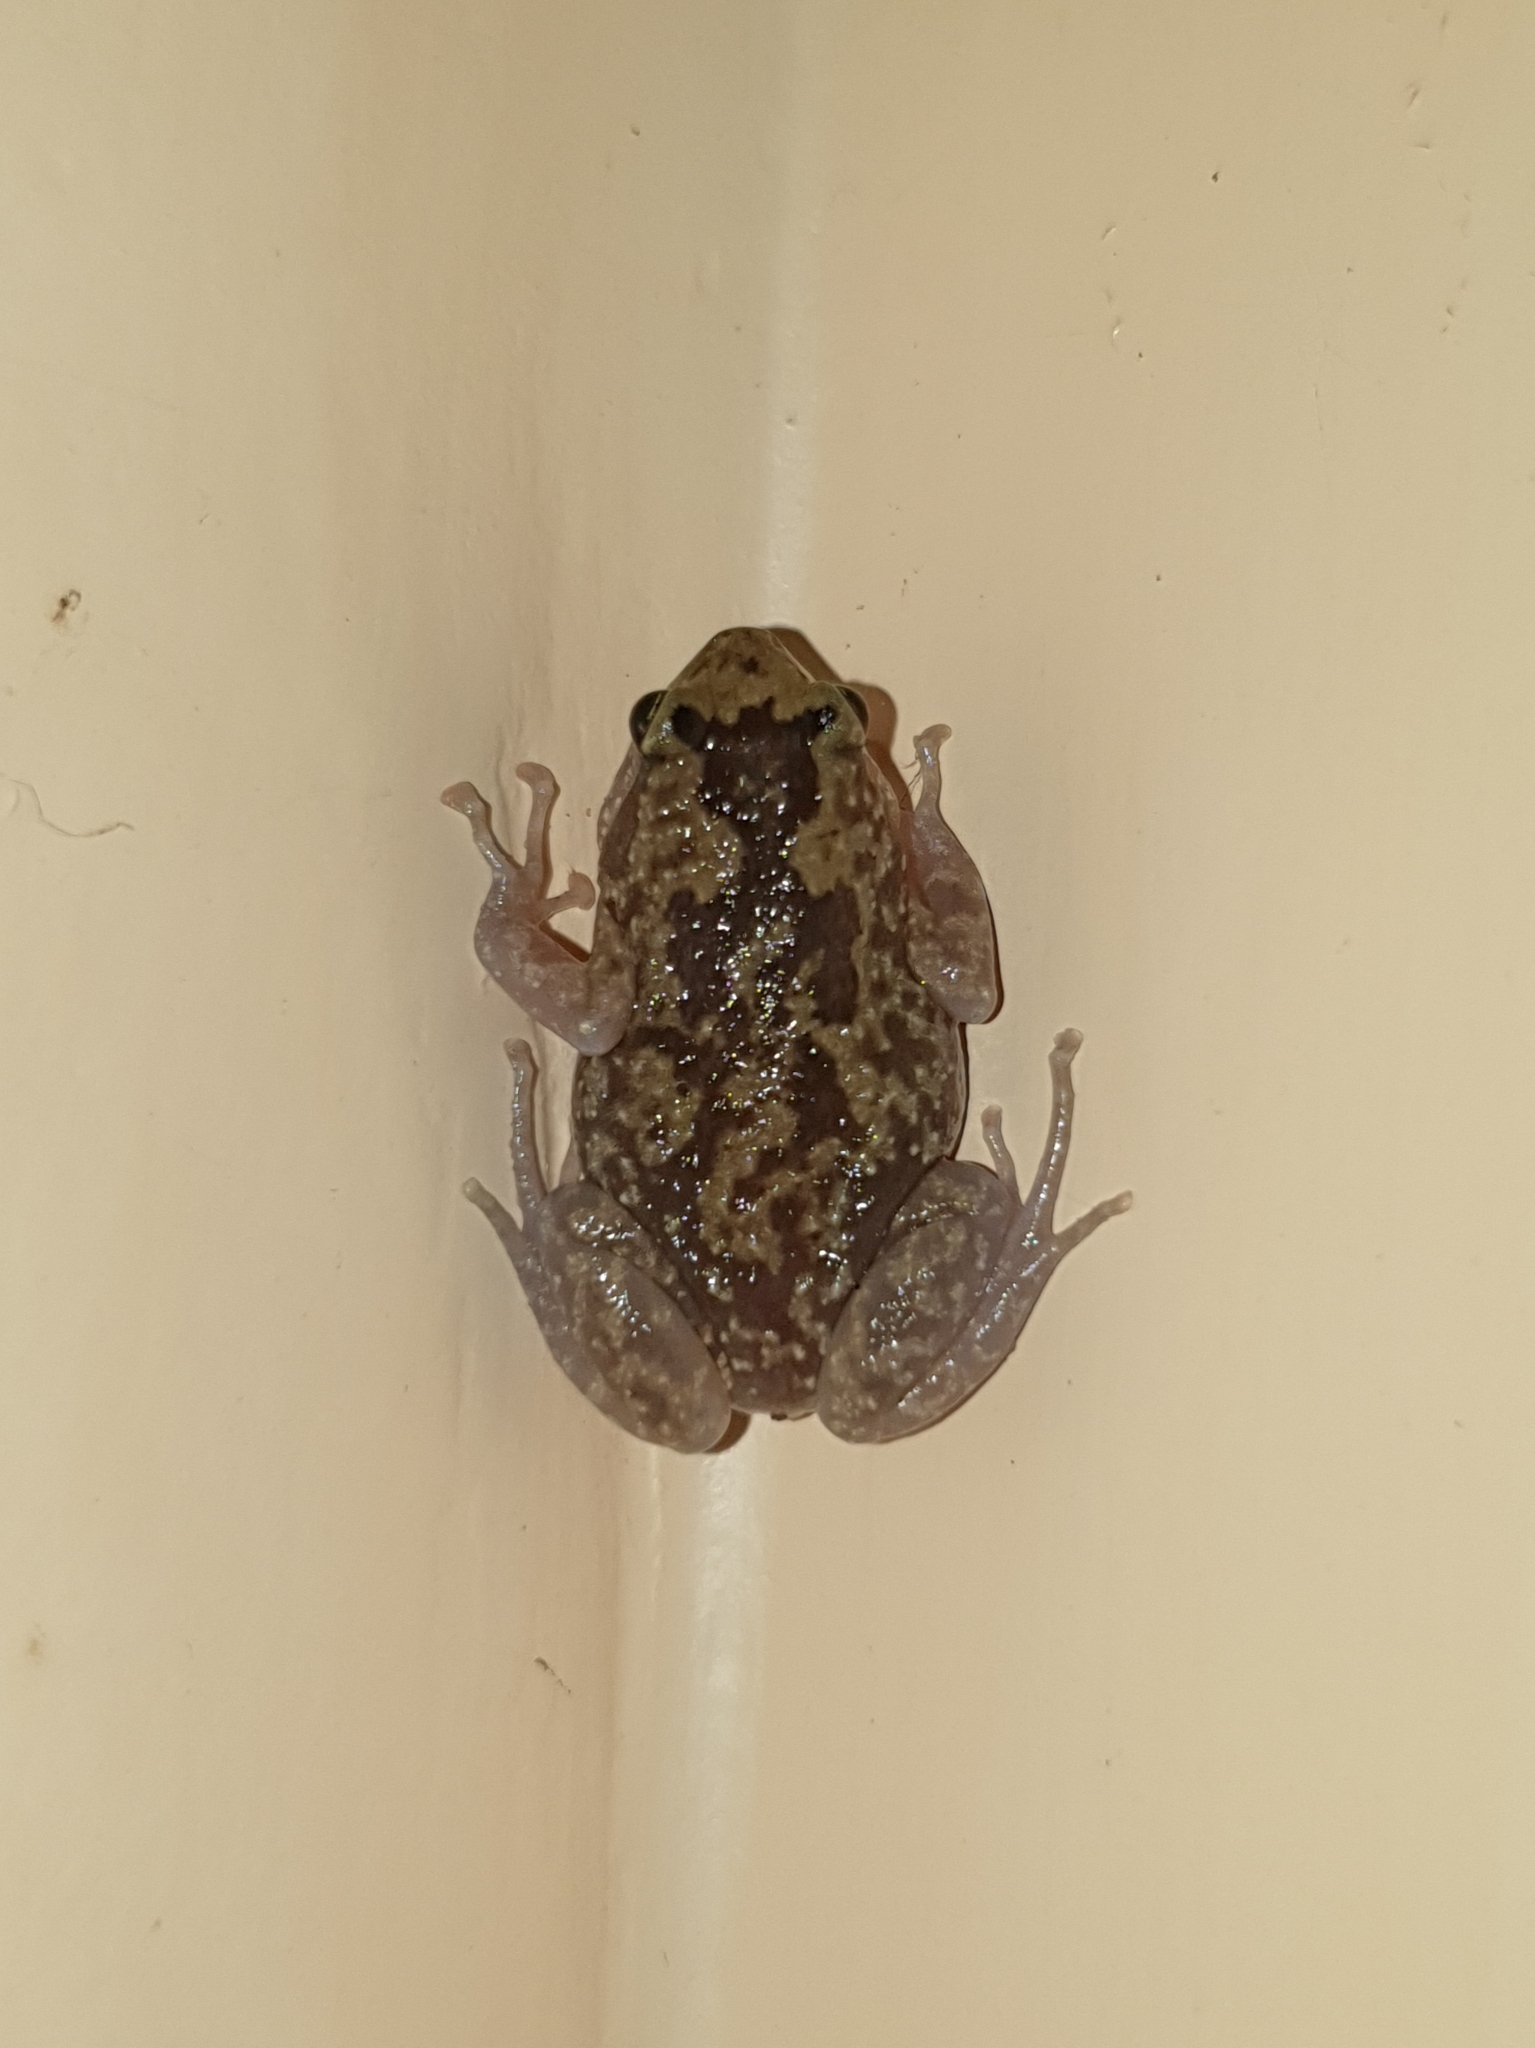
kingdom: Animalia
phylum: Chordata
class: Amphibia
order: Anura
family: Microhylidae
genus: Uperodon
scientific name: Uperodon rohani
